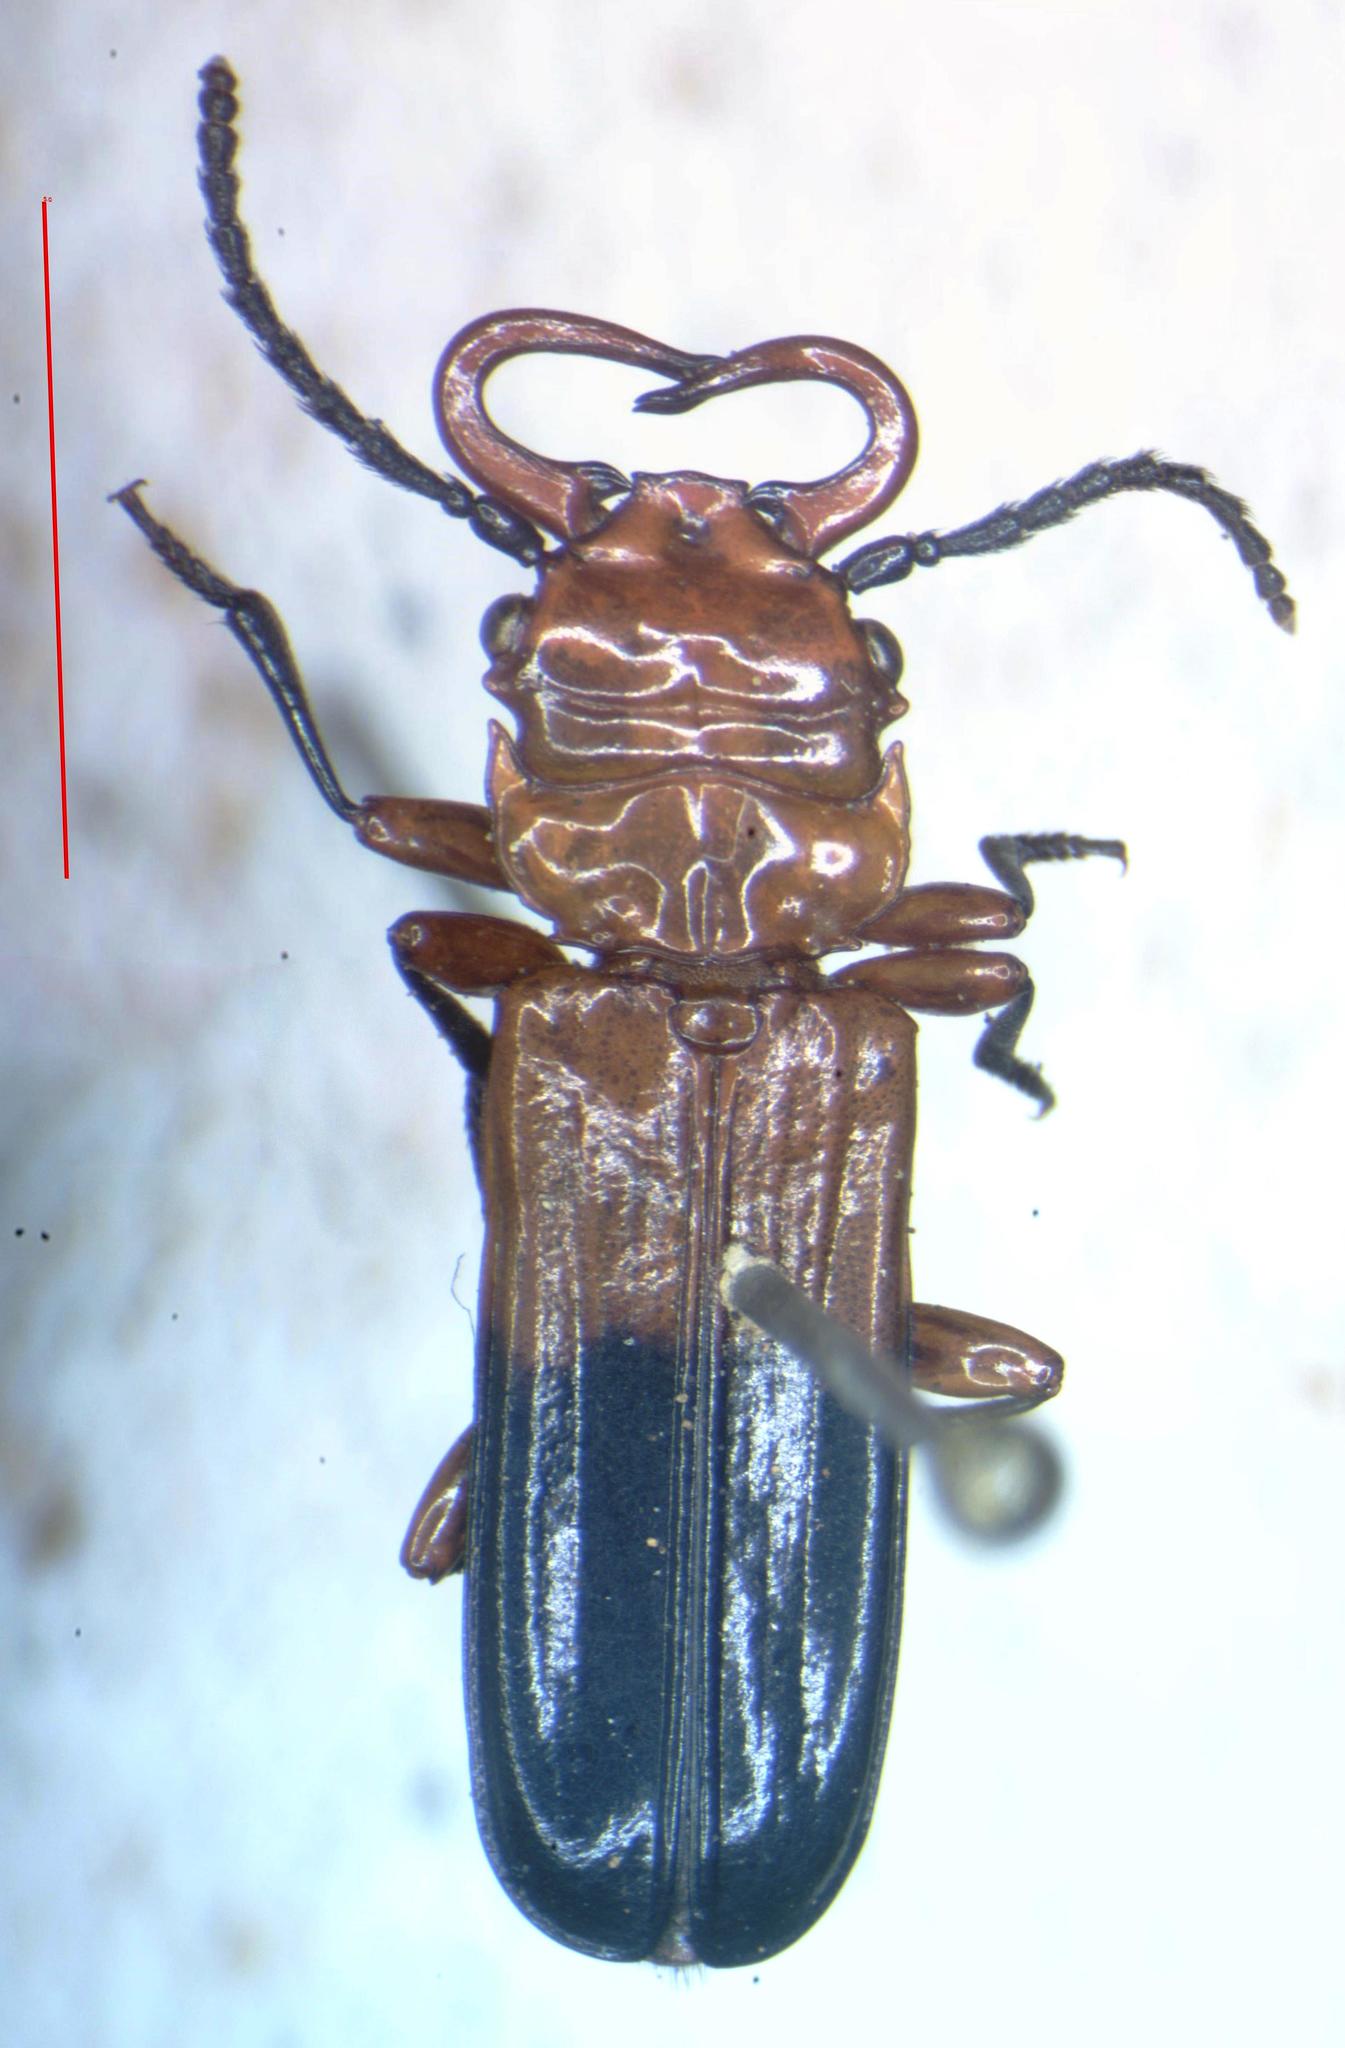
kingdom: Animalia
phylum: Arthropoda
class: Insecta
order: Coleoptera
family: Cucujidae
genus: Palaestes
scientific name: Palaestes
